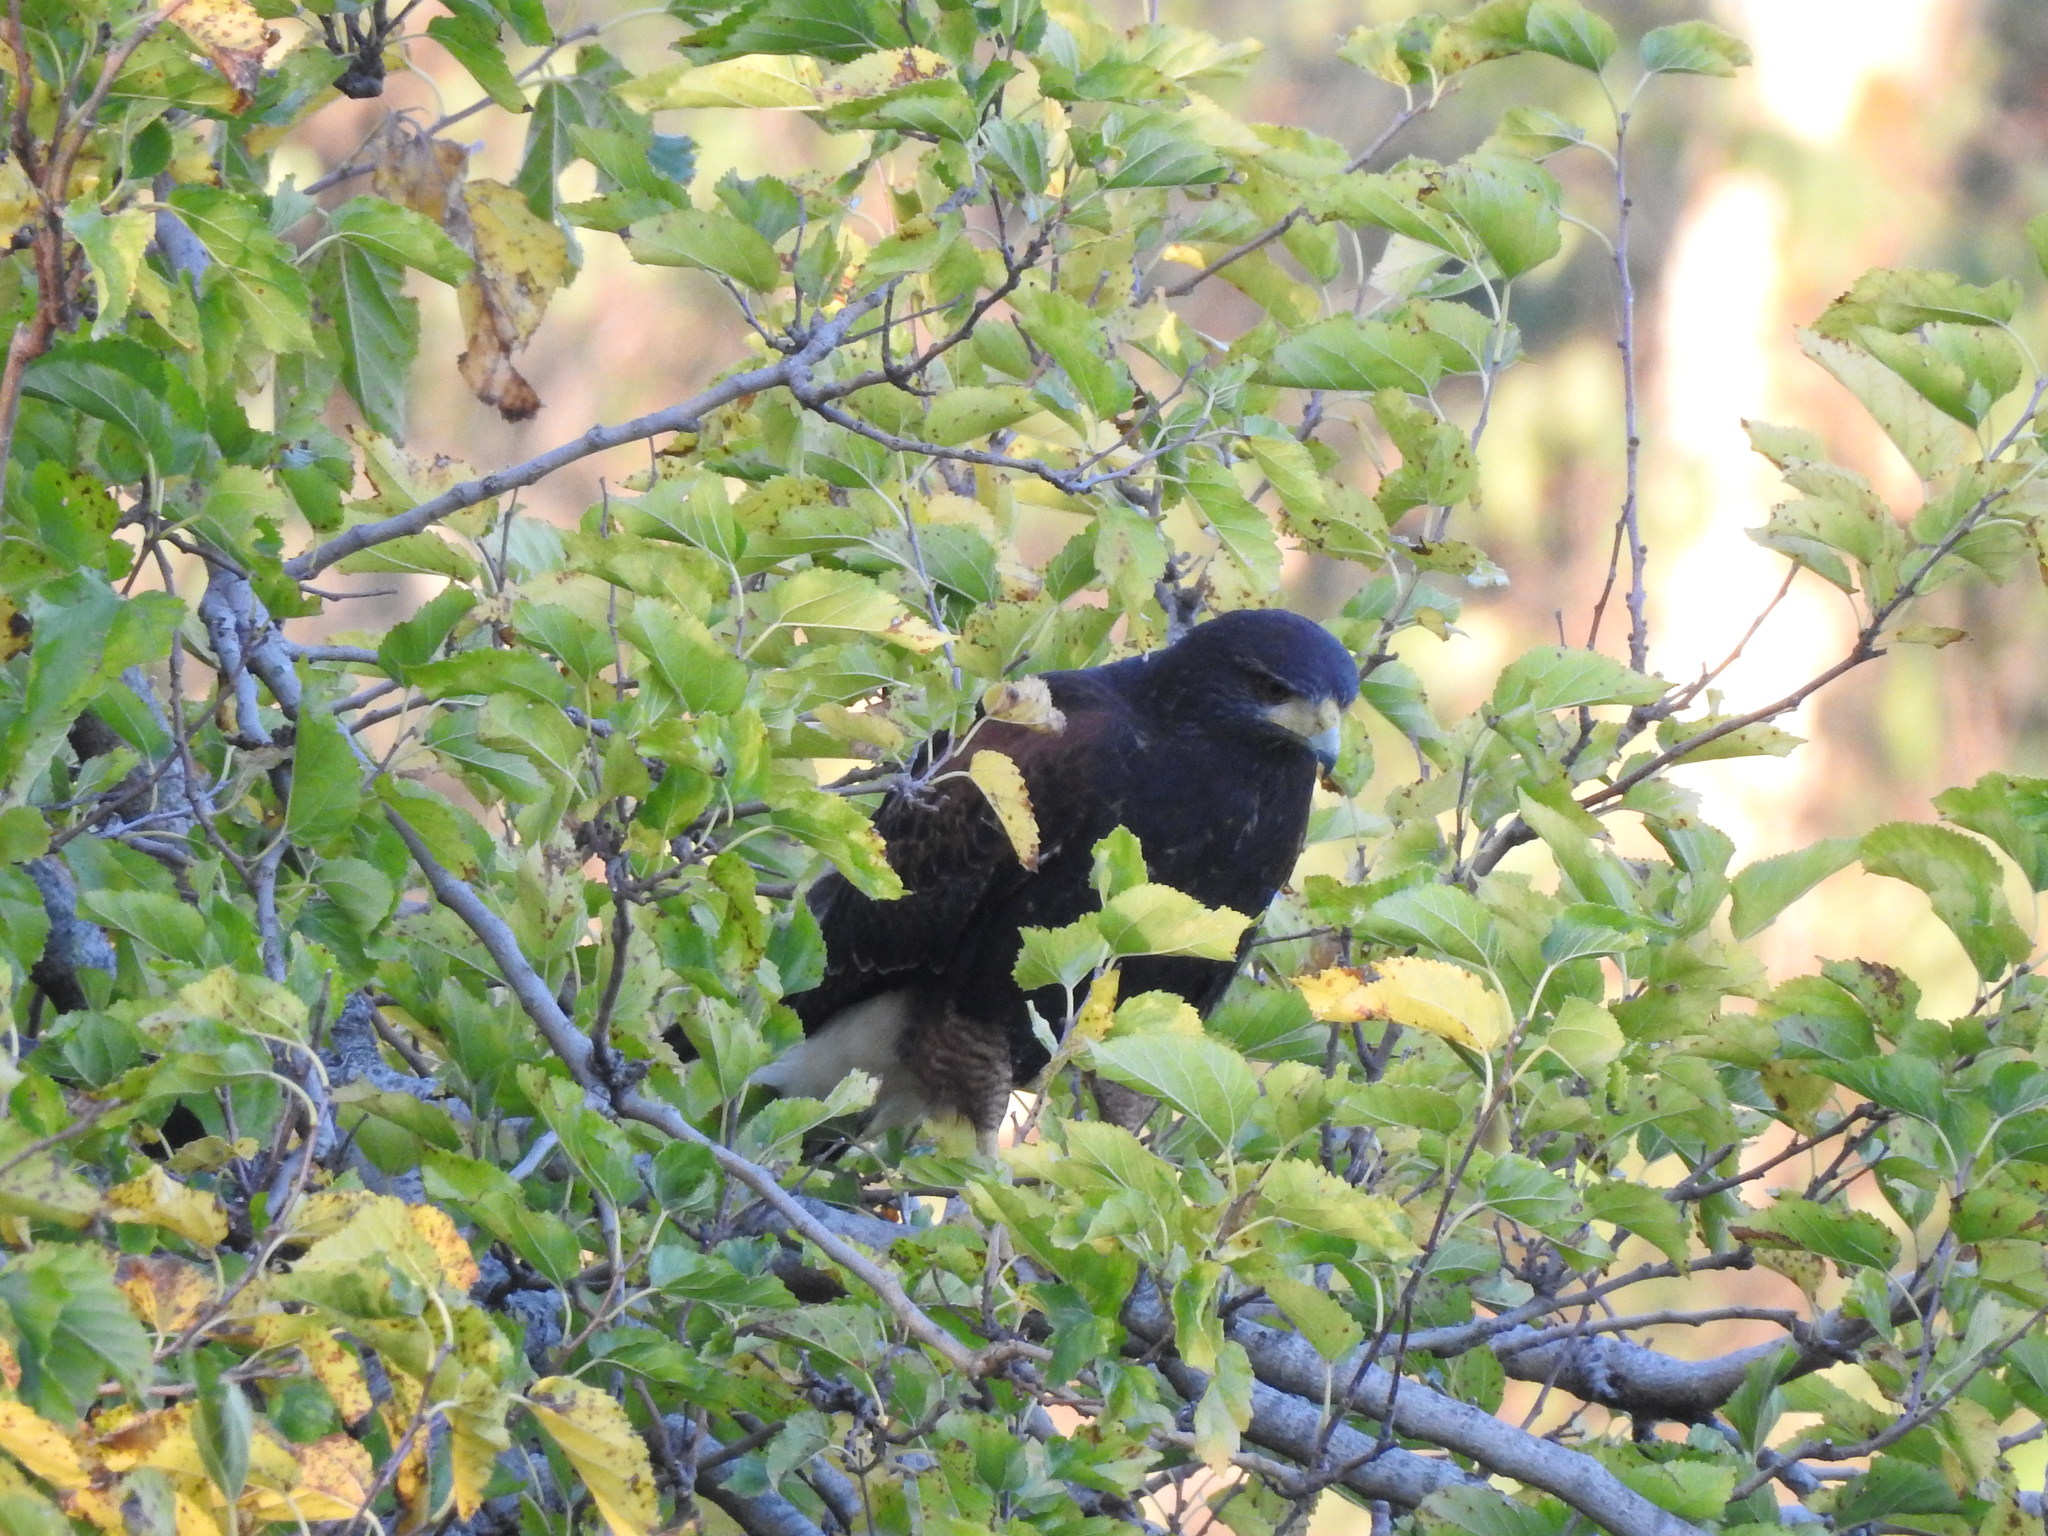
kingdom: Animalia
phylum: Chordata
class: Aves
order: Accipitriformes
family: Accipitridae
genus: Parabuteo
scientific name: Parabuteo unicinctus
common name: Harris's hawk
